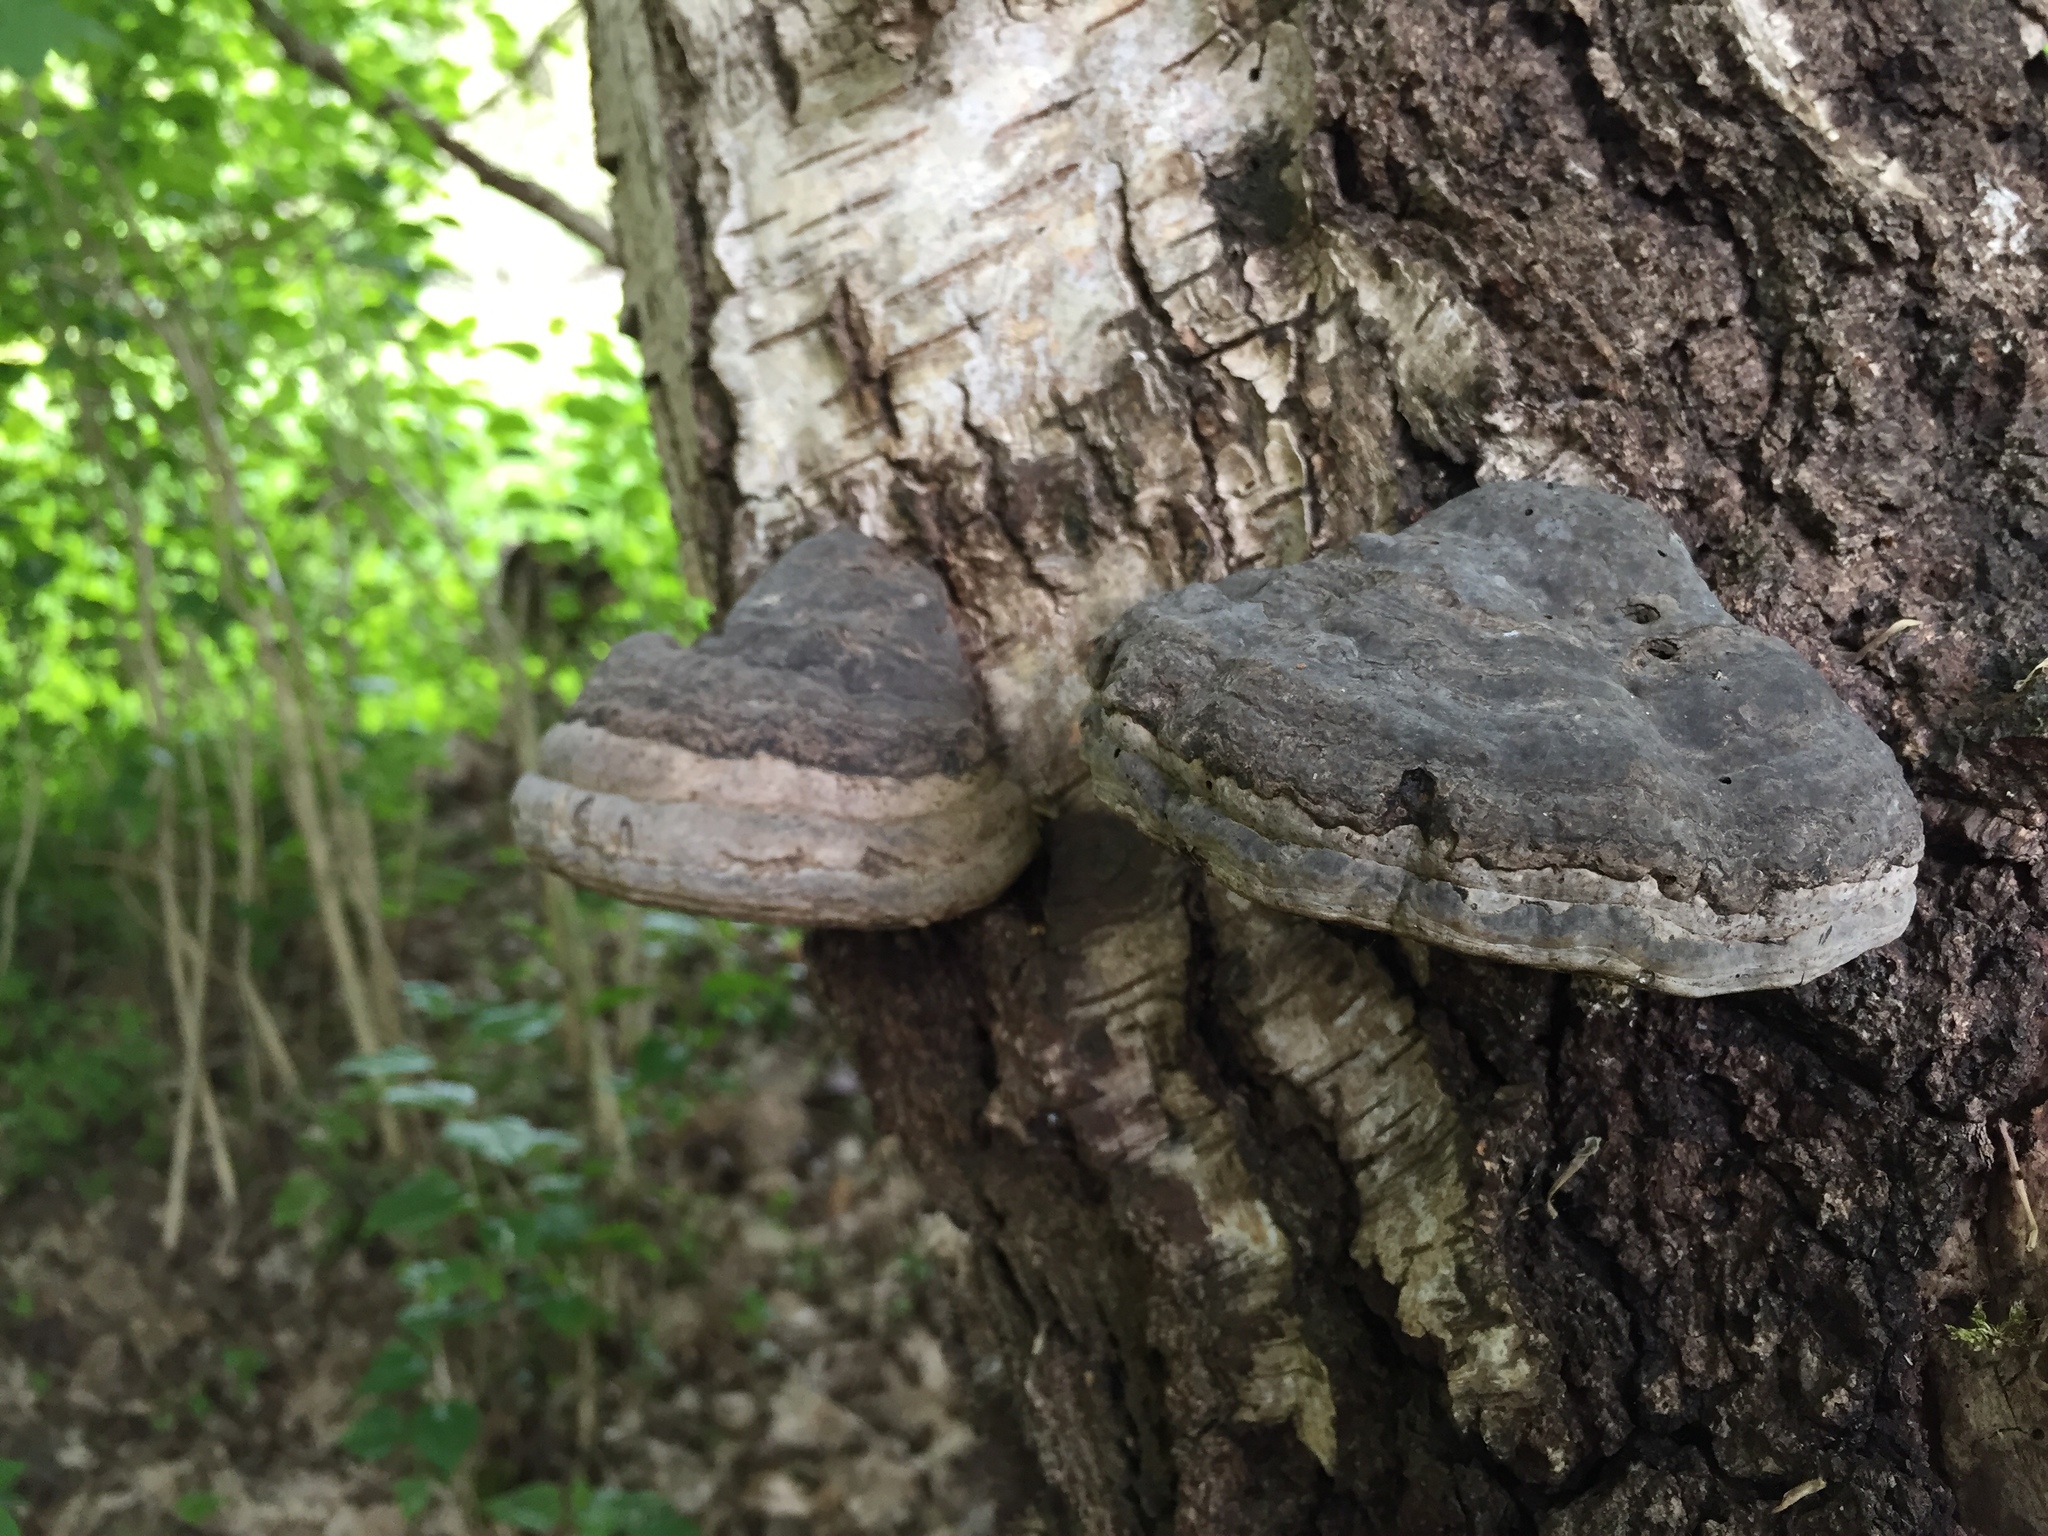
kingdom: Fungi
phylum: Basidiomycota
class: Agaricomycetes
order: Polyporales
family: Polyporaceae
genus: Fomes
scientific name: Fomes fomentarius
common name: Hoof fungus
